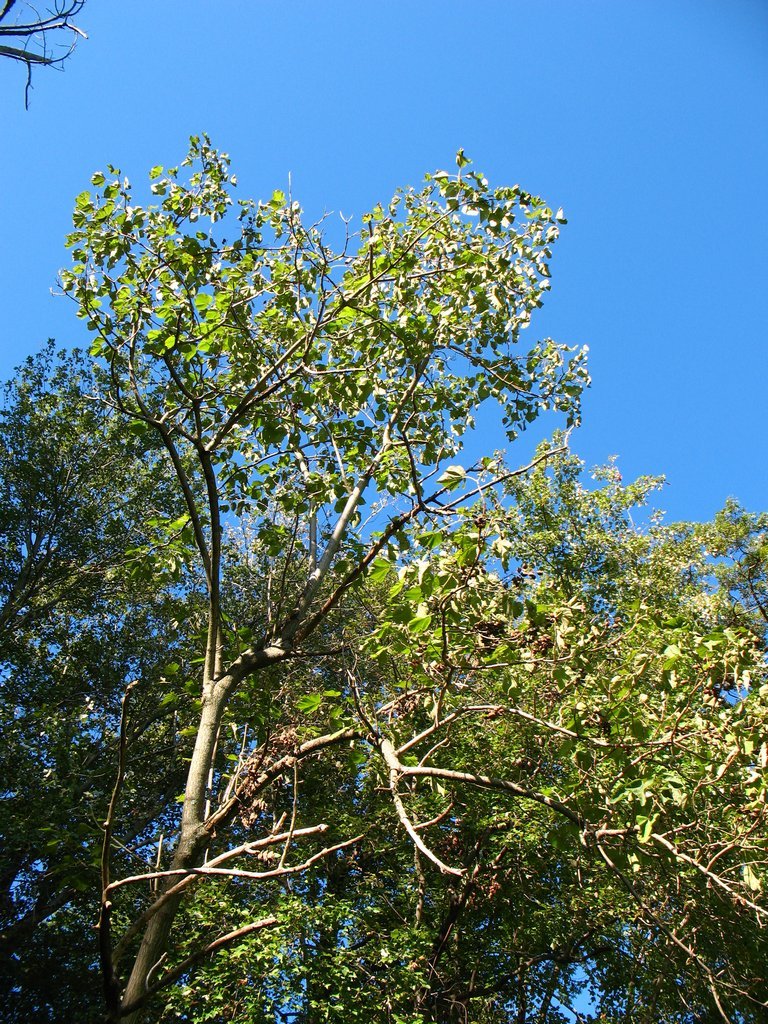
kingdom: Plantae
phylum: Tracheophyta
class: Magnoliopsida
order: Lamiales
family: Paulowniaceae
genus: Paulownia
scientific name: Paulownia tomentosa
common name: Foxglove-tree
